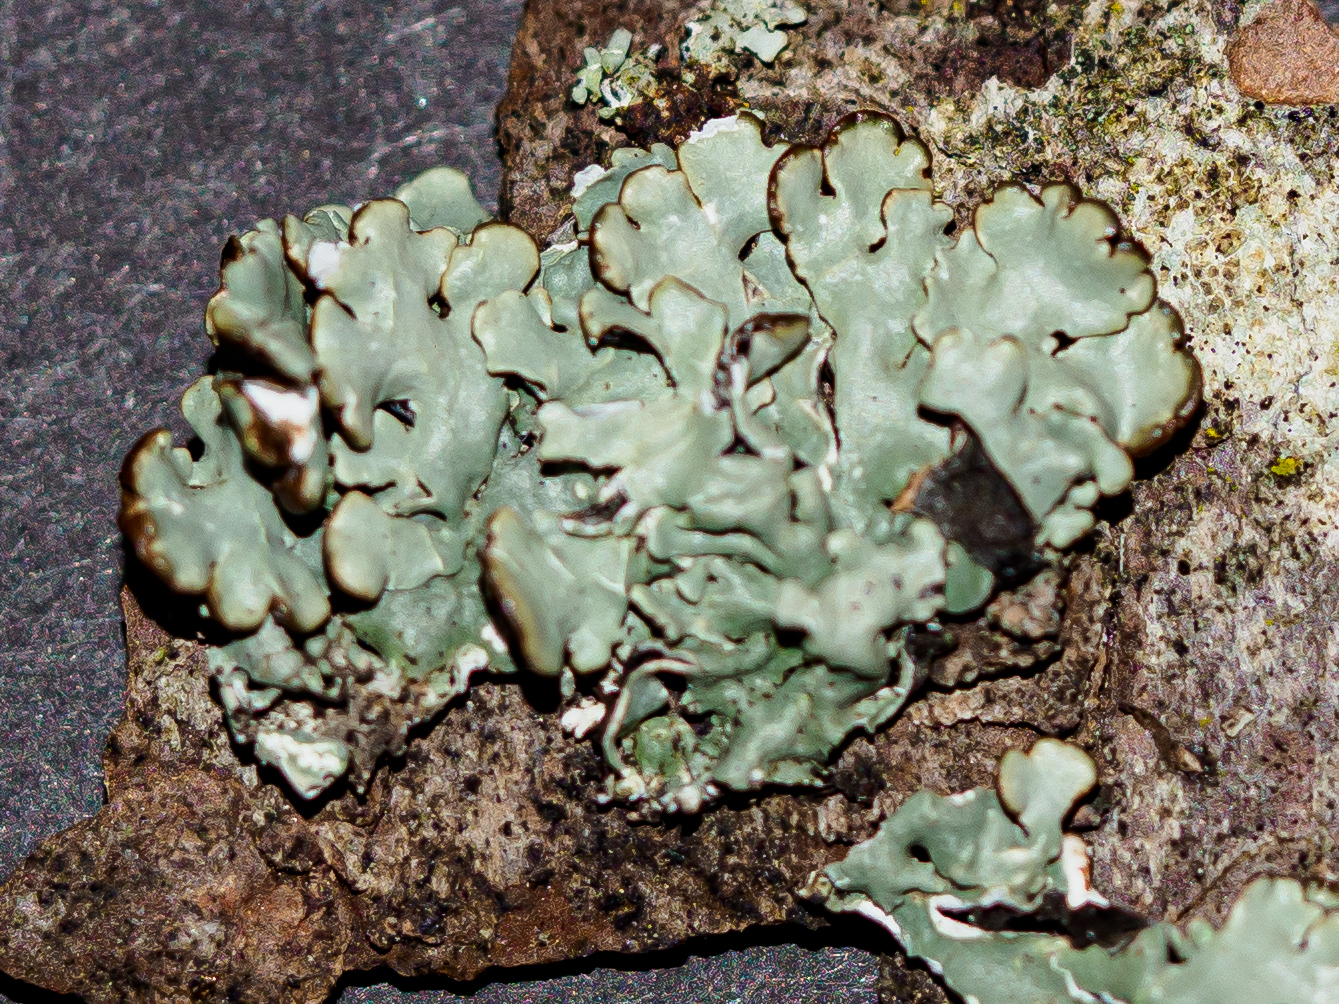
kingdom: Fungi
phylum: Ascomycota
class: Lecanoromycetes
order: Lecanorales
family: Parmeliaceae
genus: Hypogymnia
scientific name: Hypogymnia physodes
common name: Dark crottle
